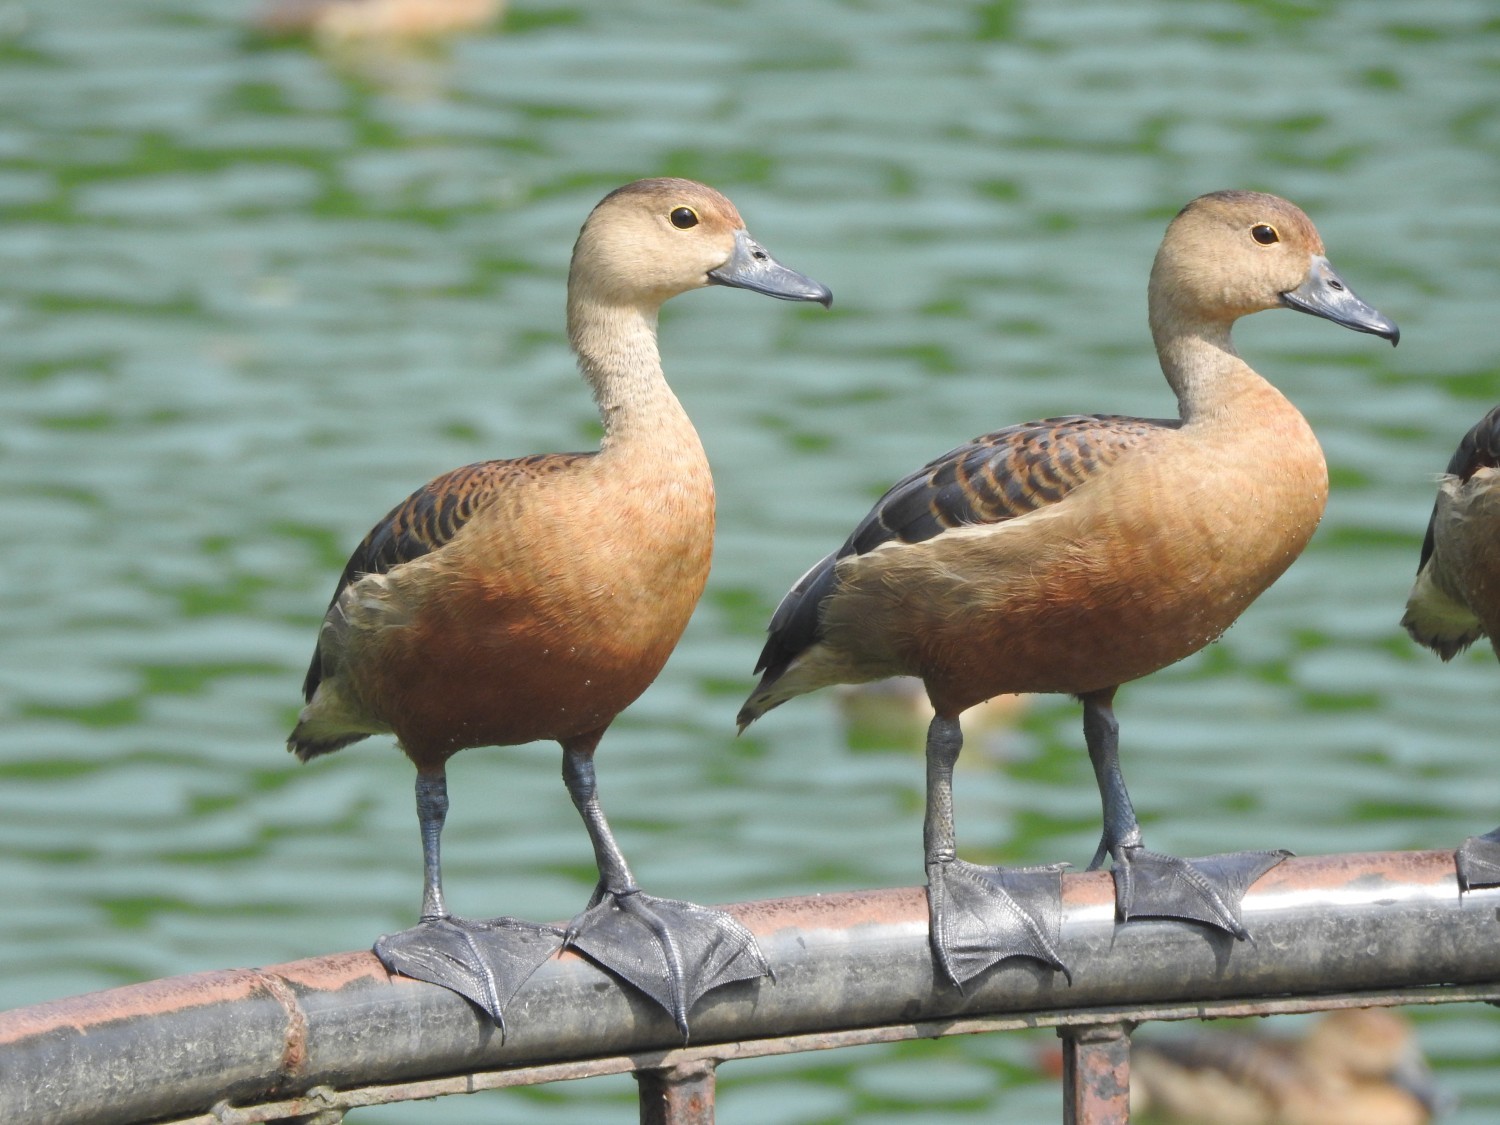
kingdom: Animalia
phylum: Chordata
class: Aves
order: Anseriformes
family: Anatidae
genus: Dendrocygna
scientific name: Dendrocygna javanica
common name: Lesser whistling-duck
